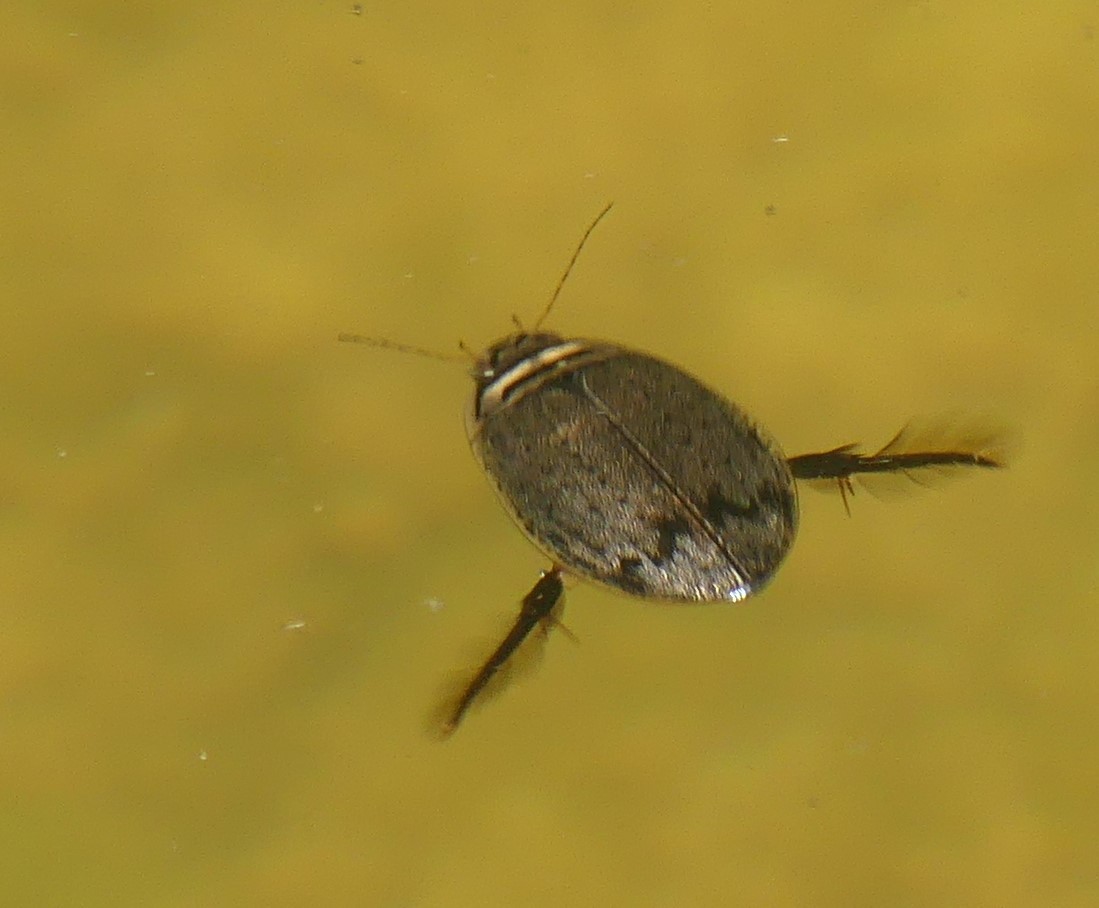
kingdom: Animalia
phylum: Arthropoda
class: Insecta
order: Coleoptera
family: Dytiscidae
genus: Acilius
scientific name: Acilius sulcatus
